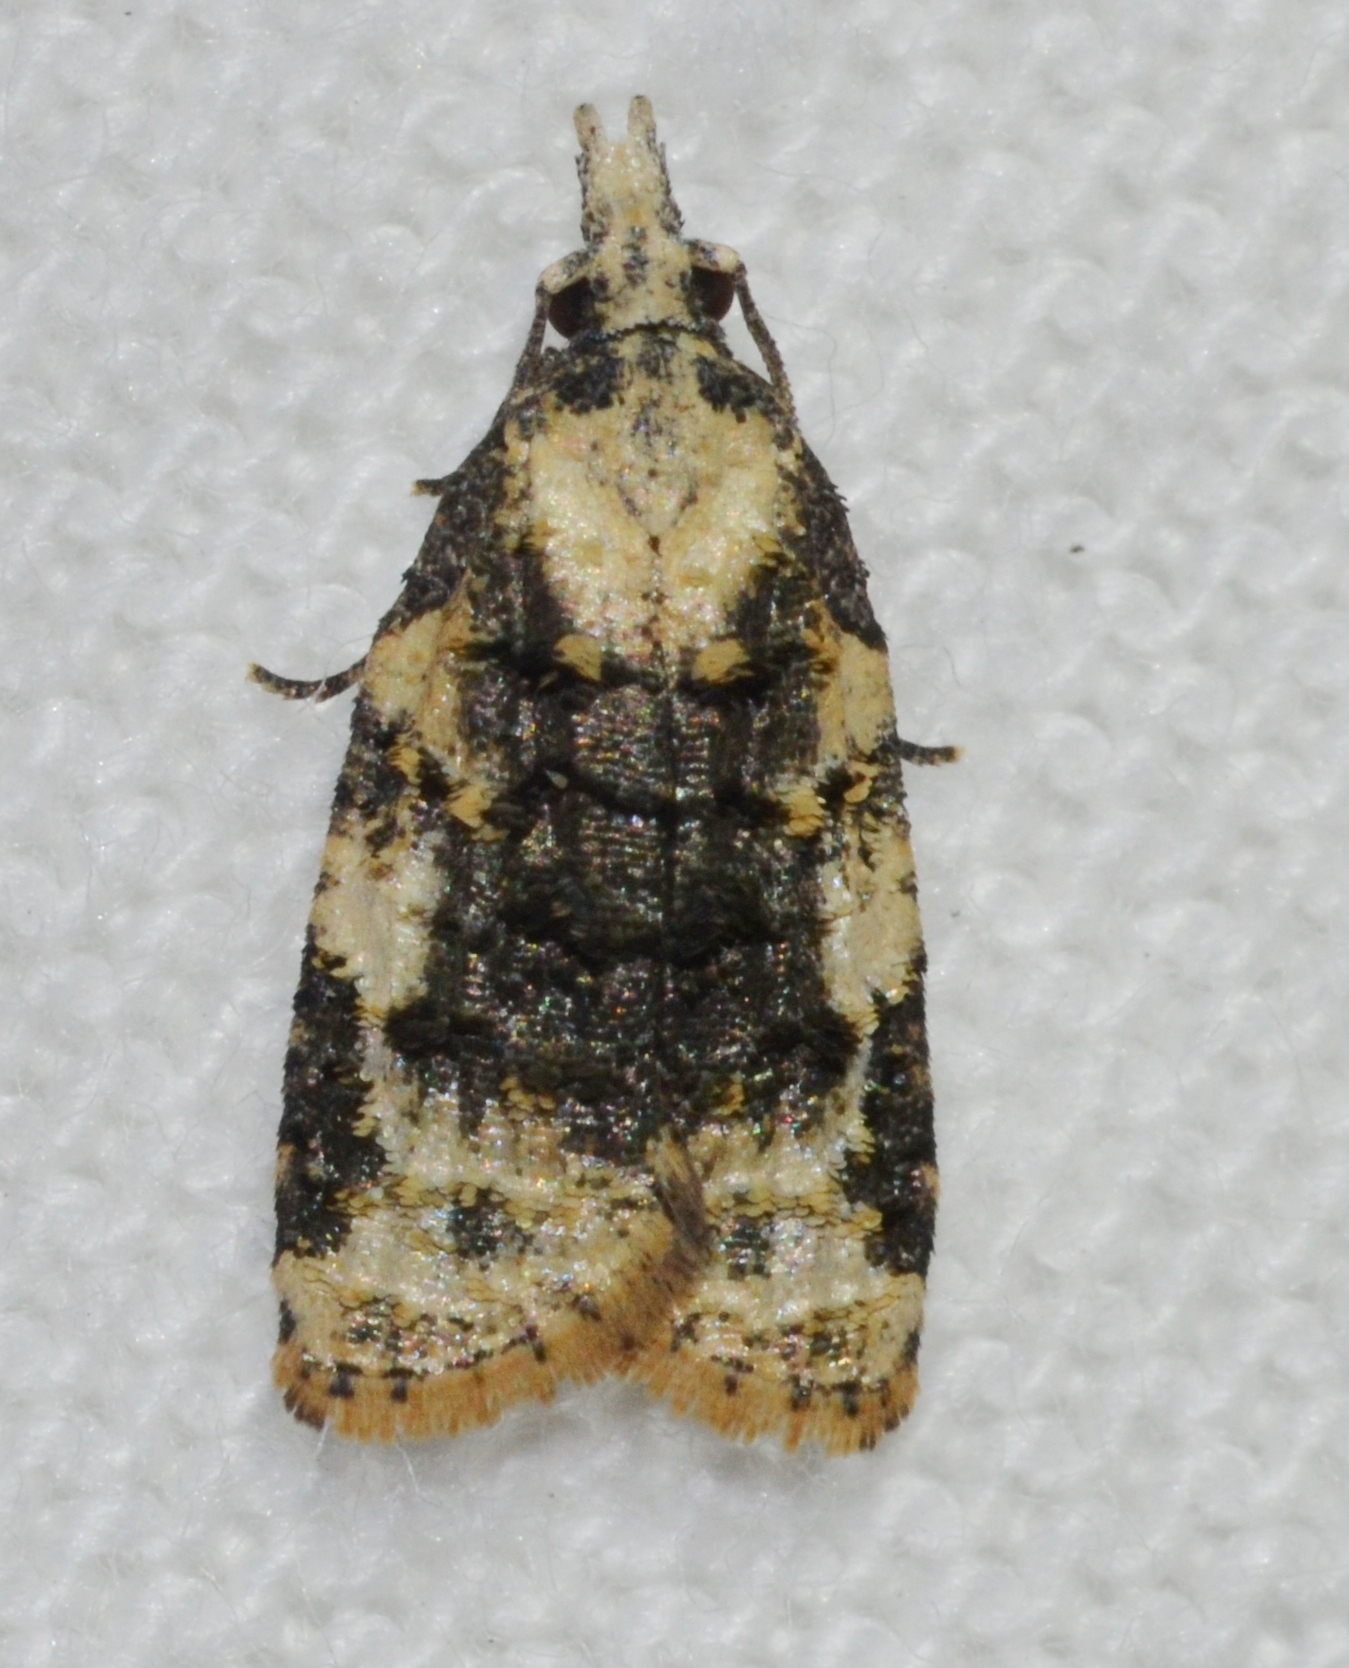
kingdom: Animalia
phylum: Arthropoda
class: Insecta
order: Lepidoptera
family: Tortricidae
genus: Platynota
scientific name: Platynota exasperatana
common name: Exasperating platynota moth
